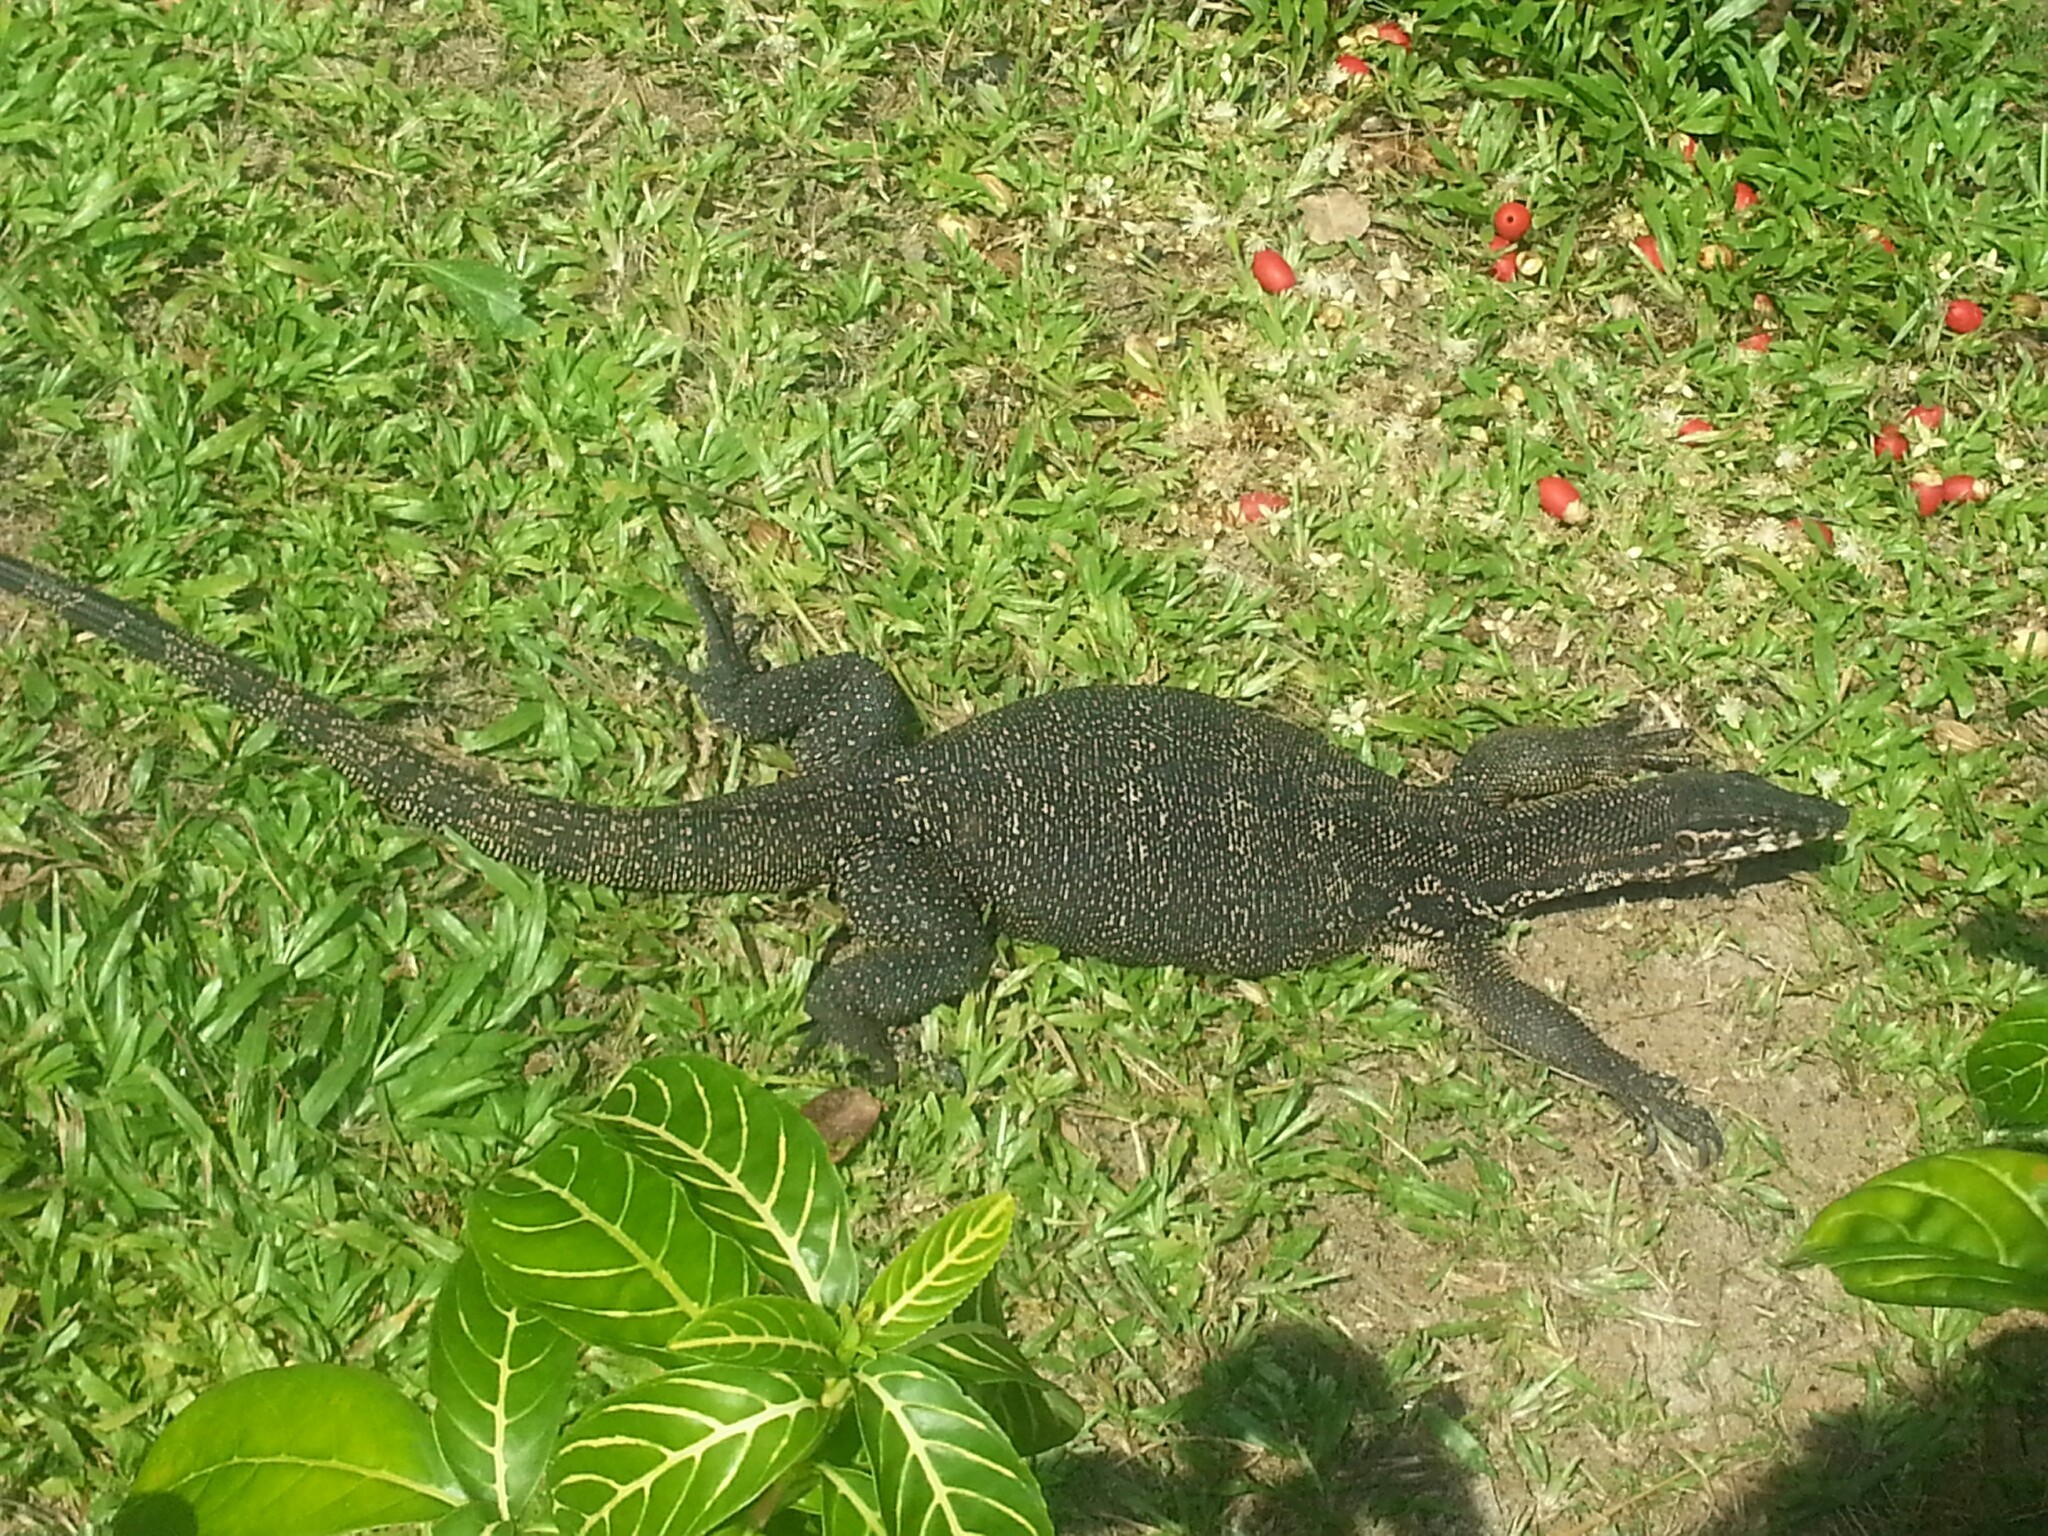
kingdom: Animalia
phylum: Chordata
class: Squamata
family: Varanidae
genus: Varanus
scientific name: Varanus palawanensis
